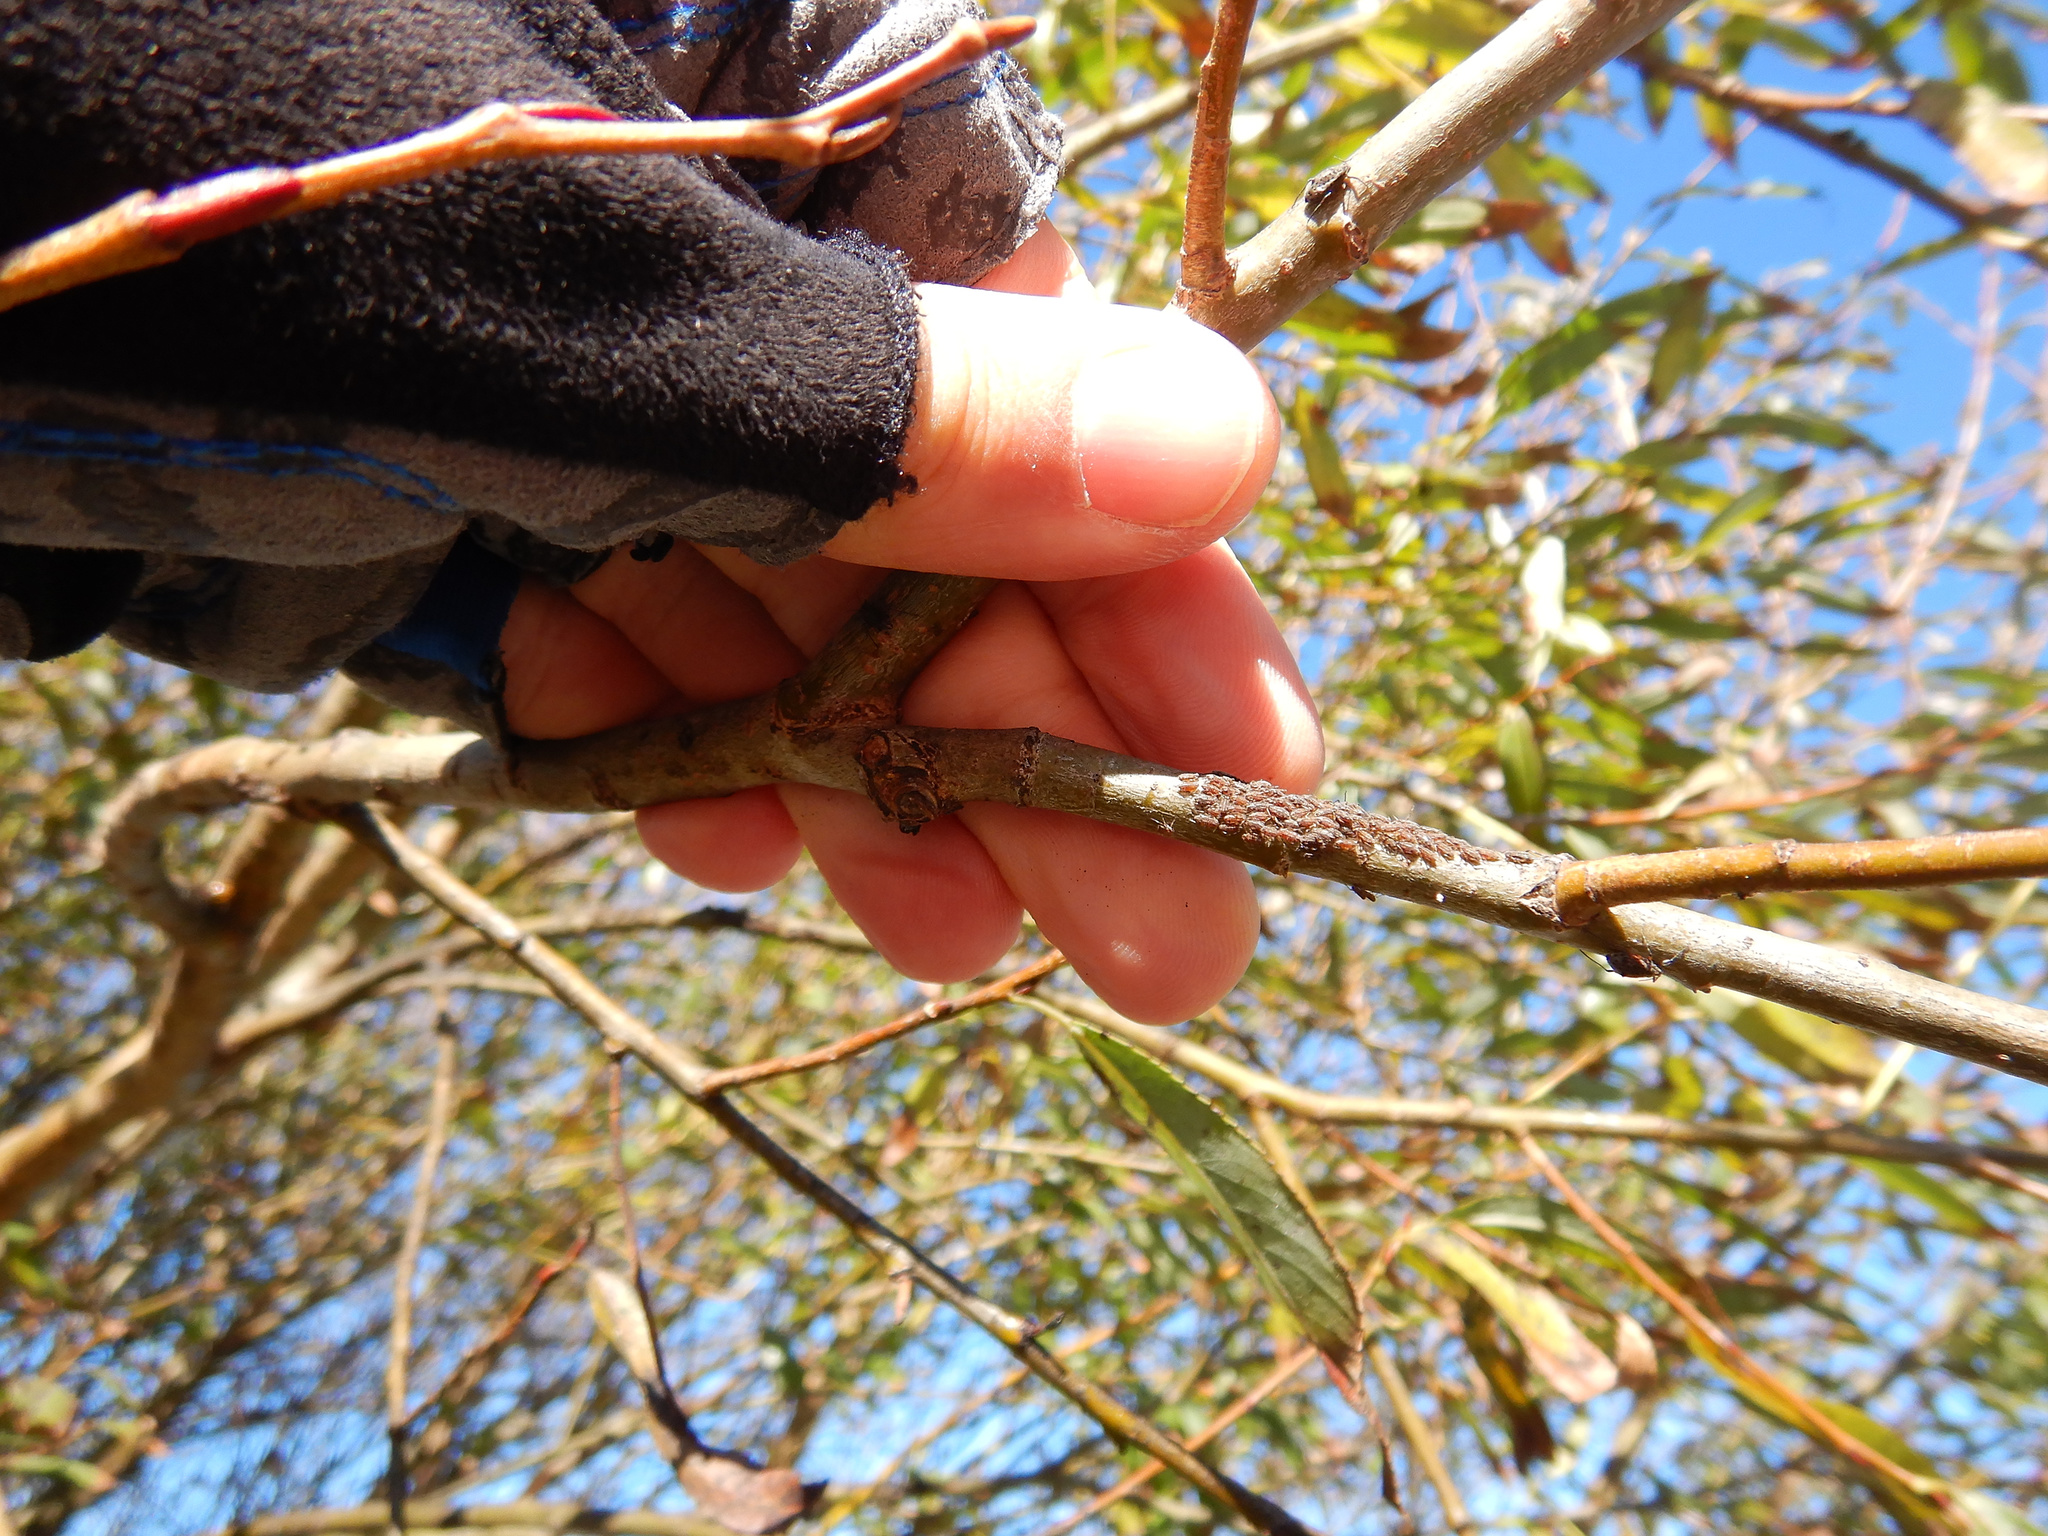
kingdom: Animalia
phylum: Arthropoda
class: Insecta
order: Hemiptera
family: Aphididae
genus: Tuberolachnus
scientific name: Tuberolachnus salignus
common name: Giant willow aphid
